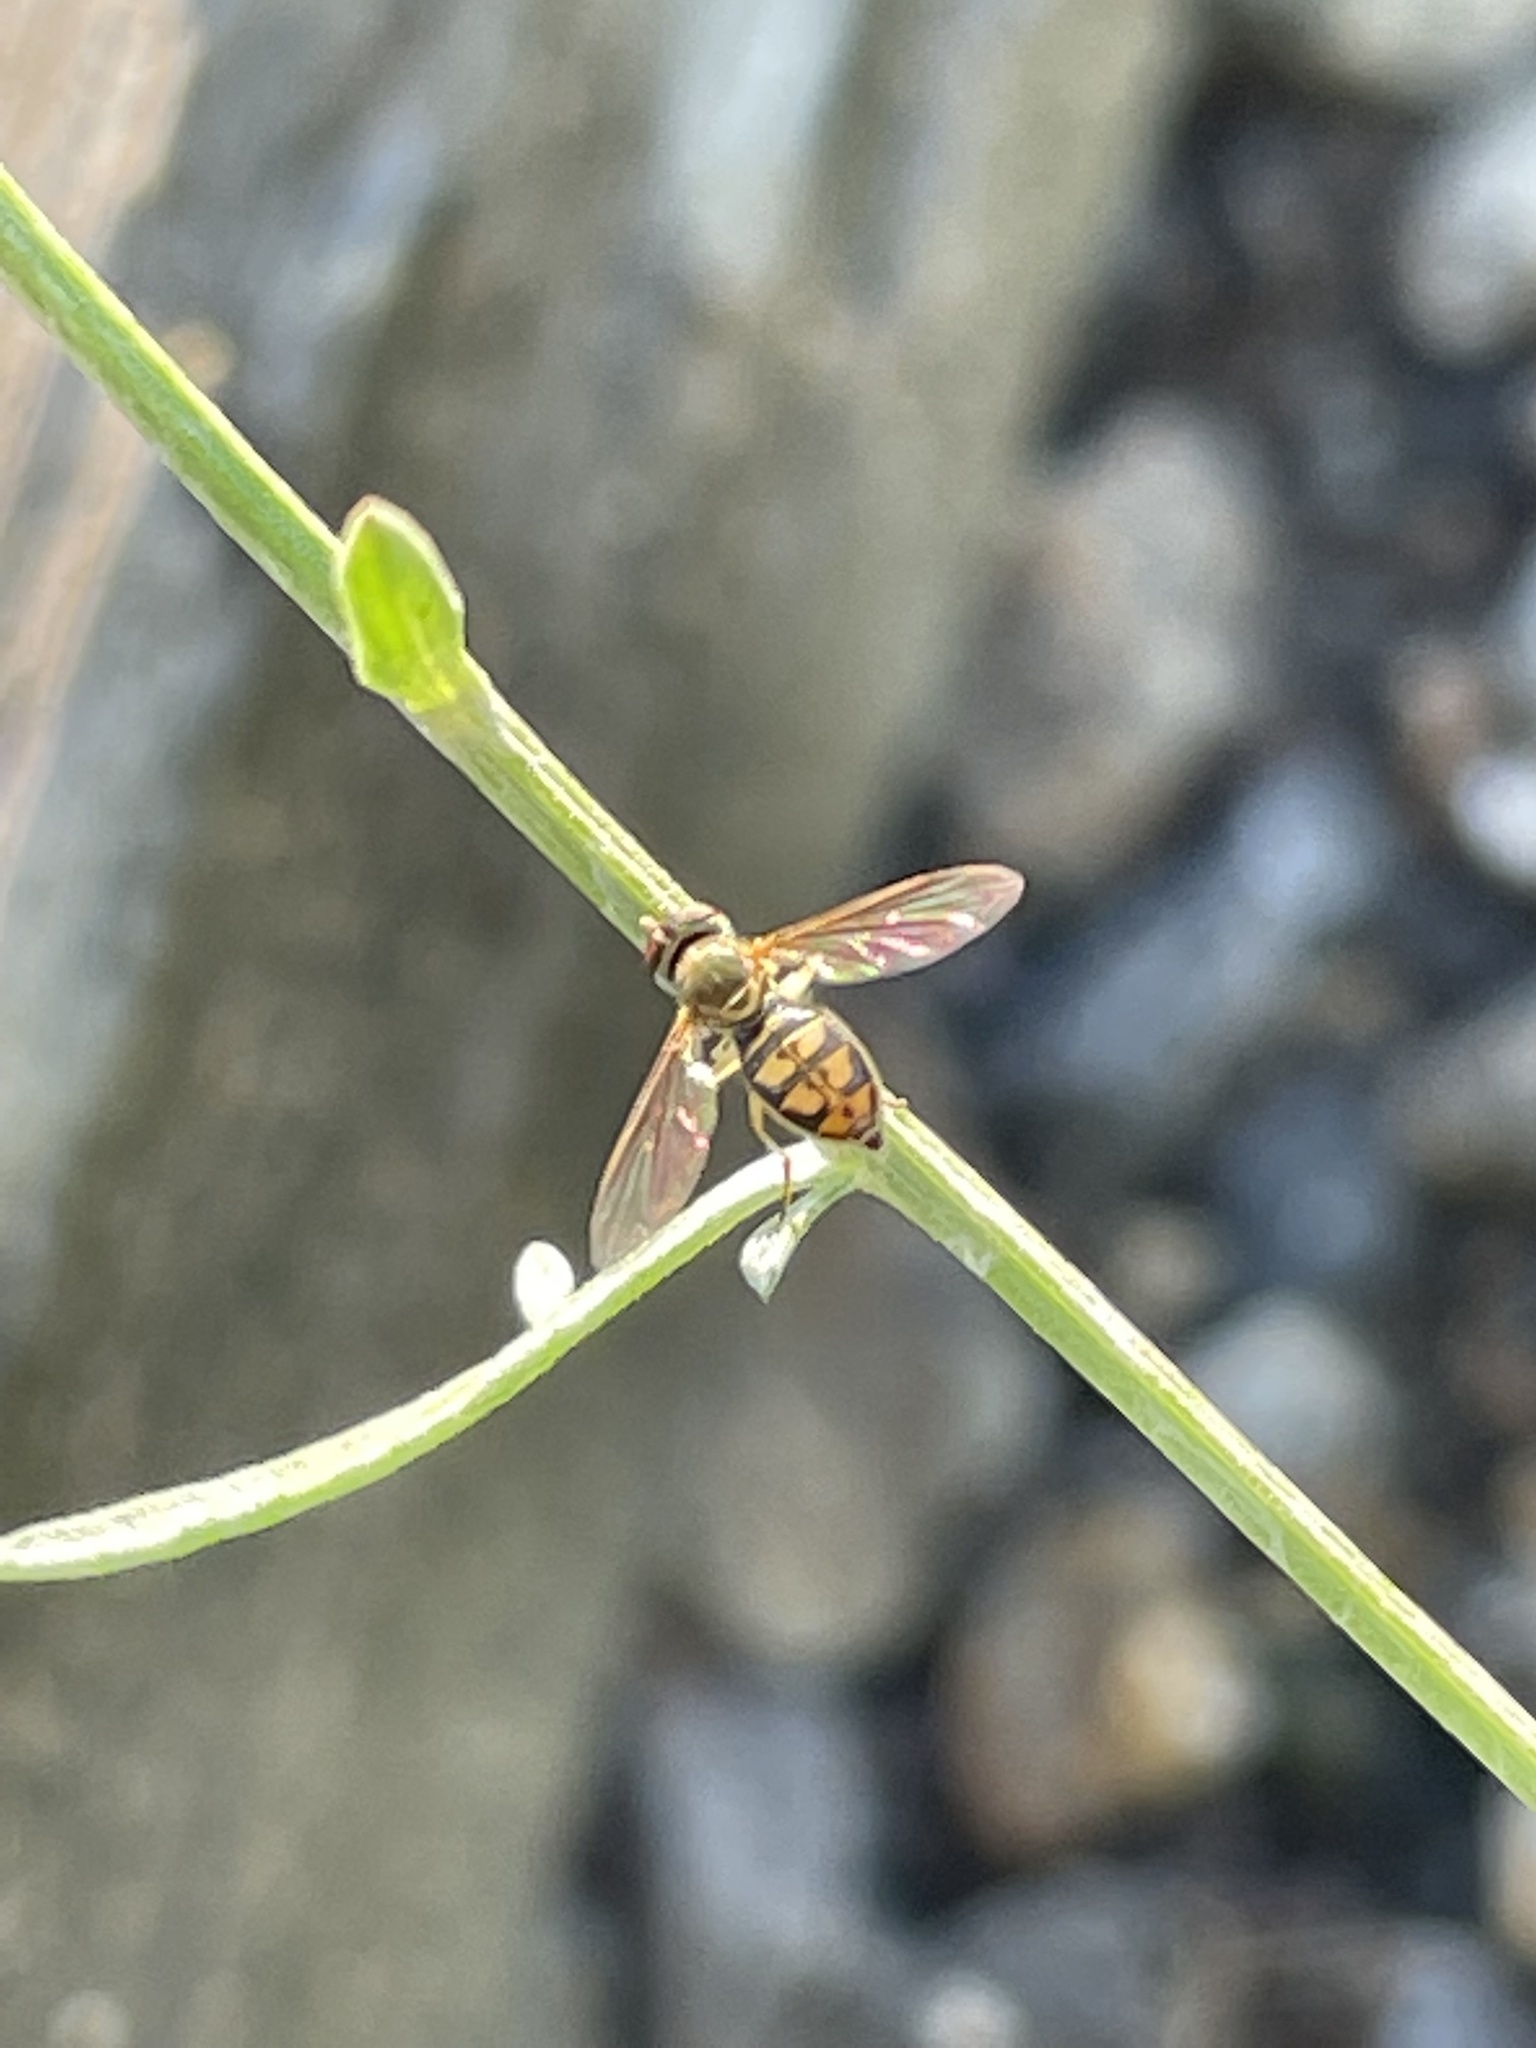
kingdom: Animalia
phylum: Arthropoda
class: Insecta
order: Diptera
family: Syrphidae
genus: Toxomerus
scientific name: Toxomerus marginatus
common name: Syrphid fly
